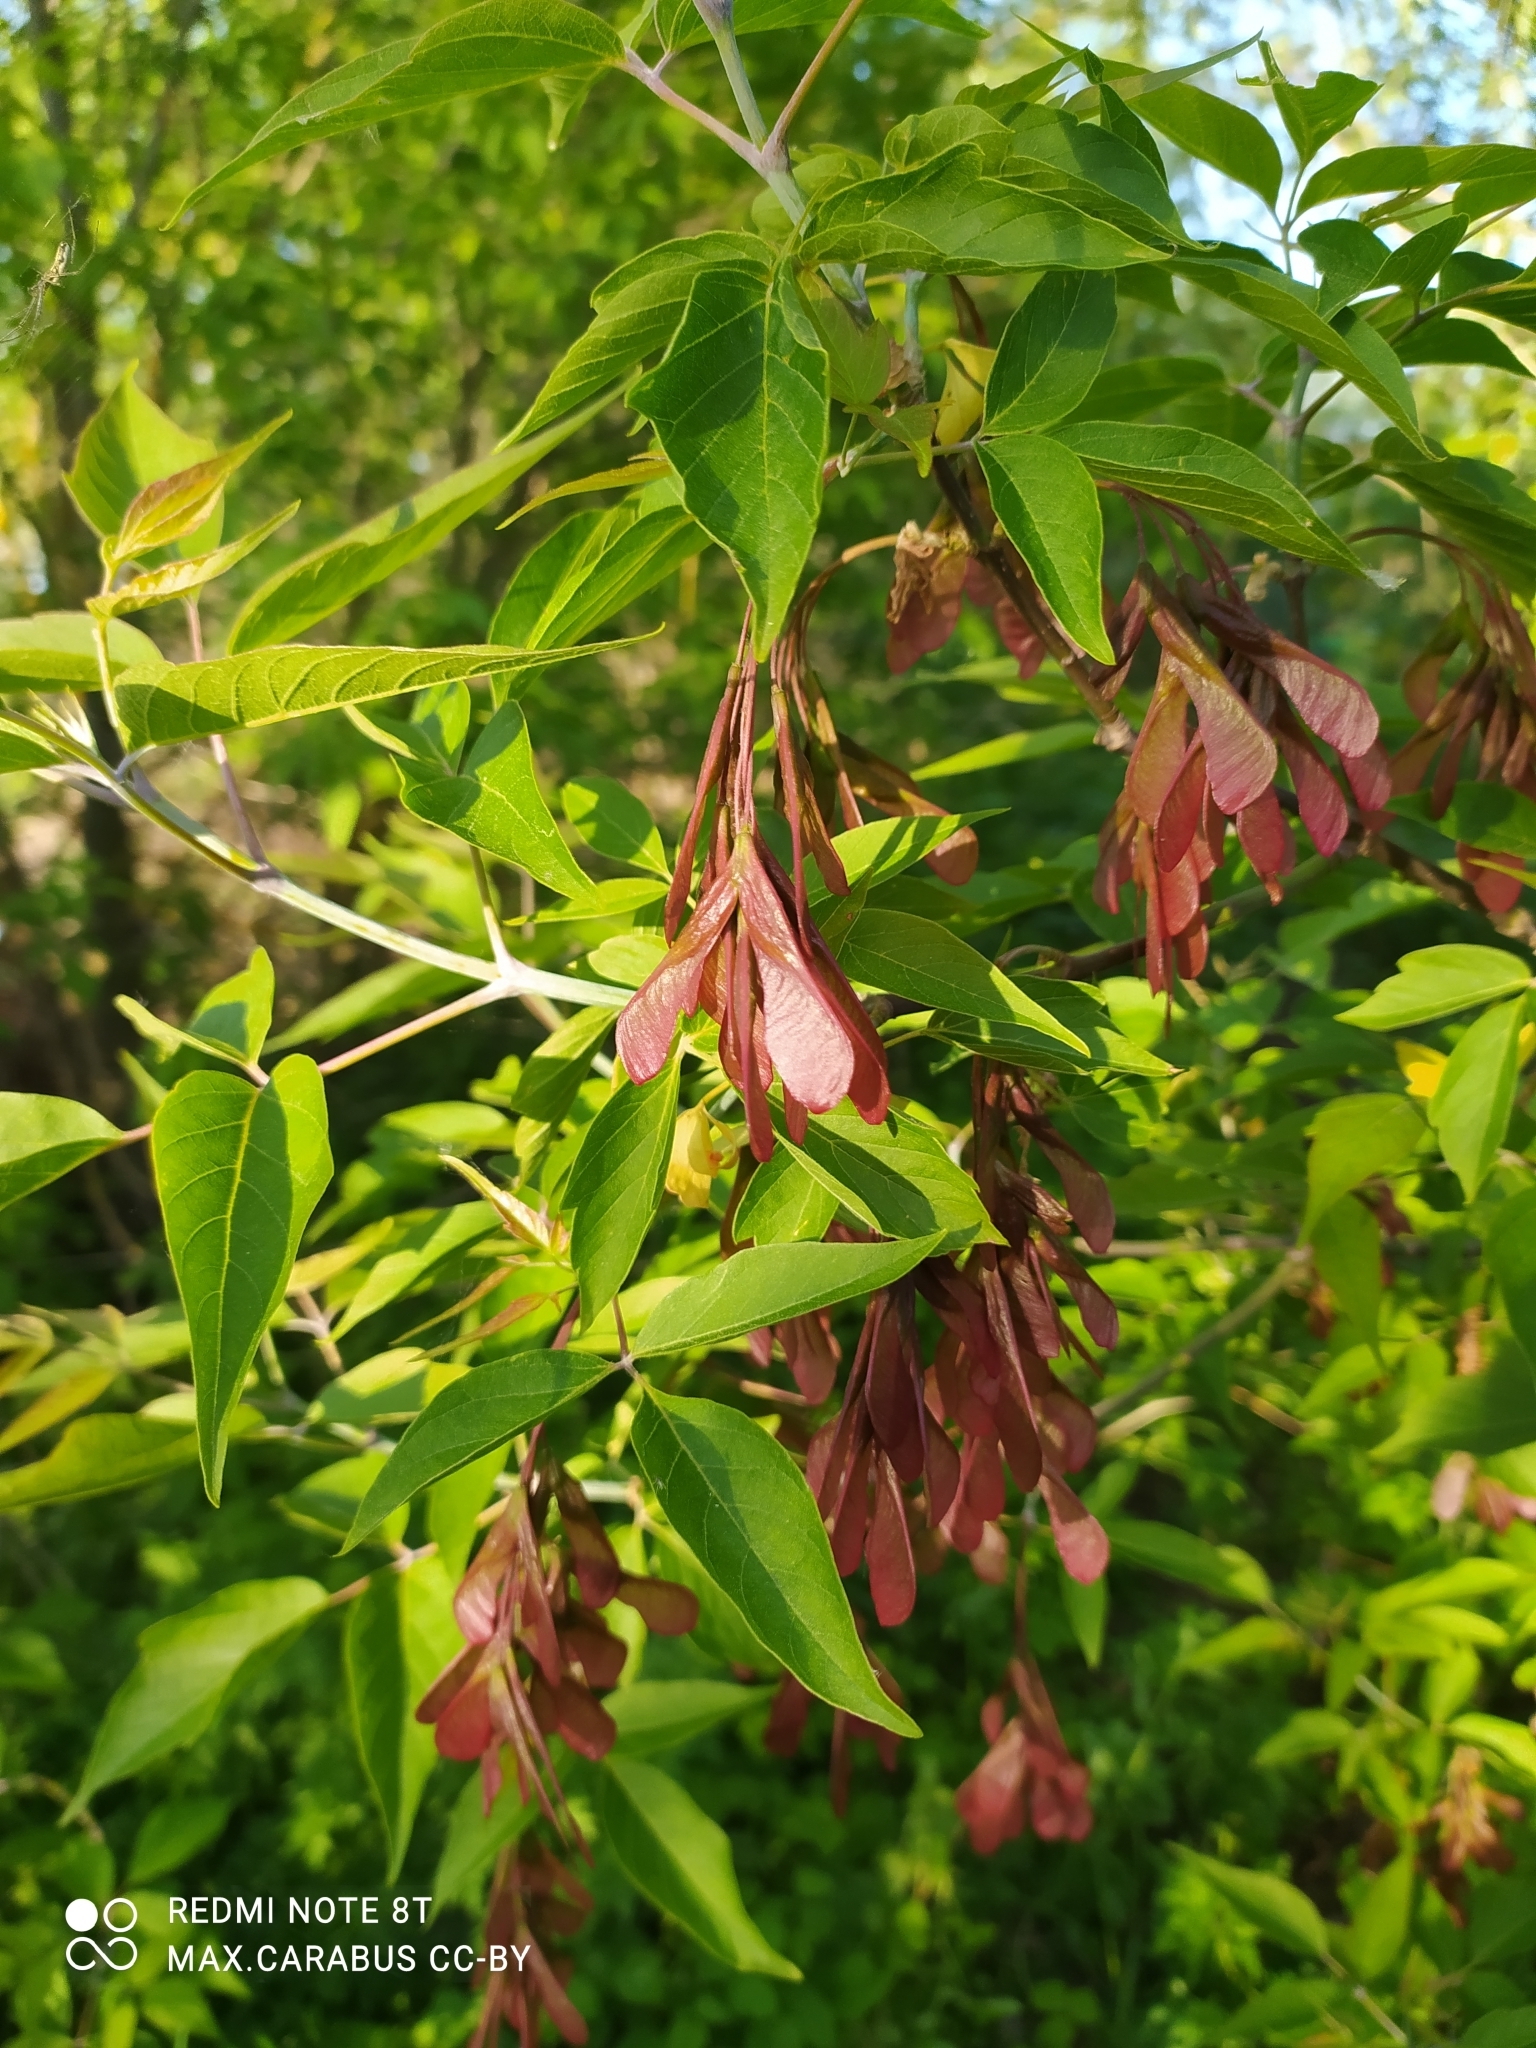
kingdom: Plantae
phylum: Tracheophyta
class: Magnoliopsida
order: Sapindales
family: Sapindaceae
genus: Acer
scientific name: Acer platanoides
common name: Norway maple
